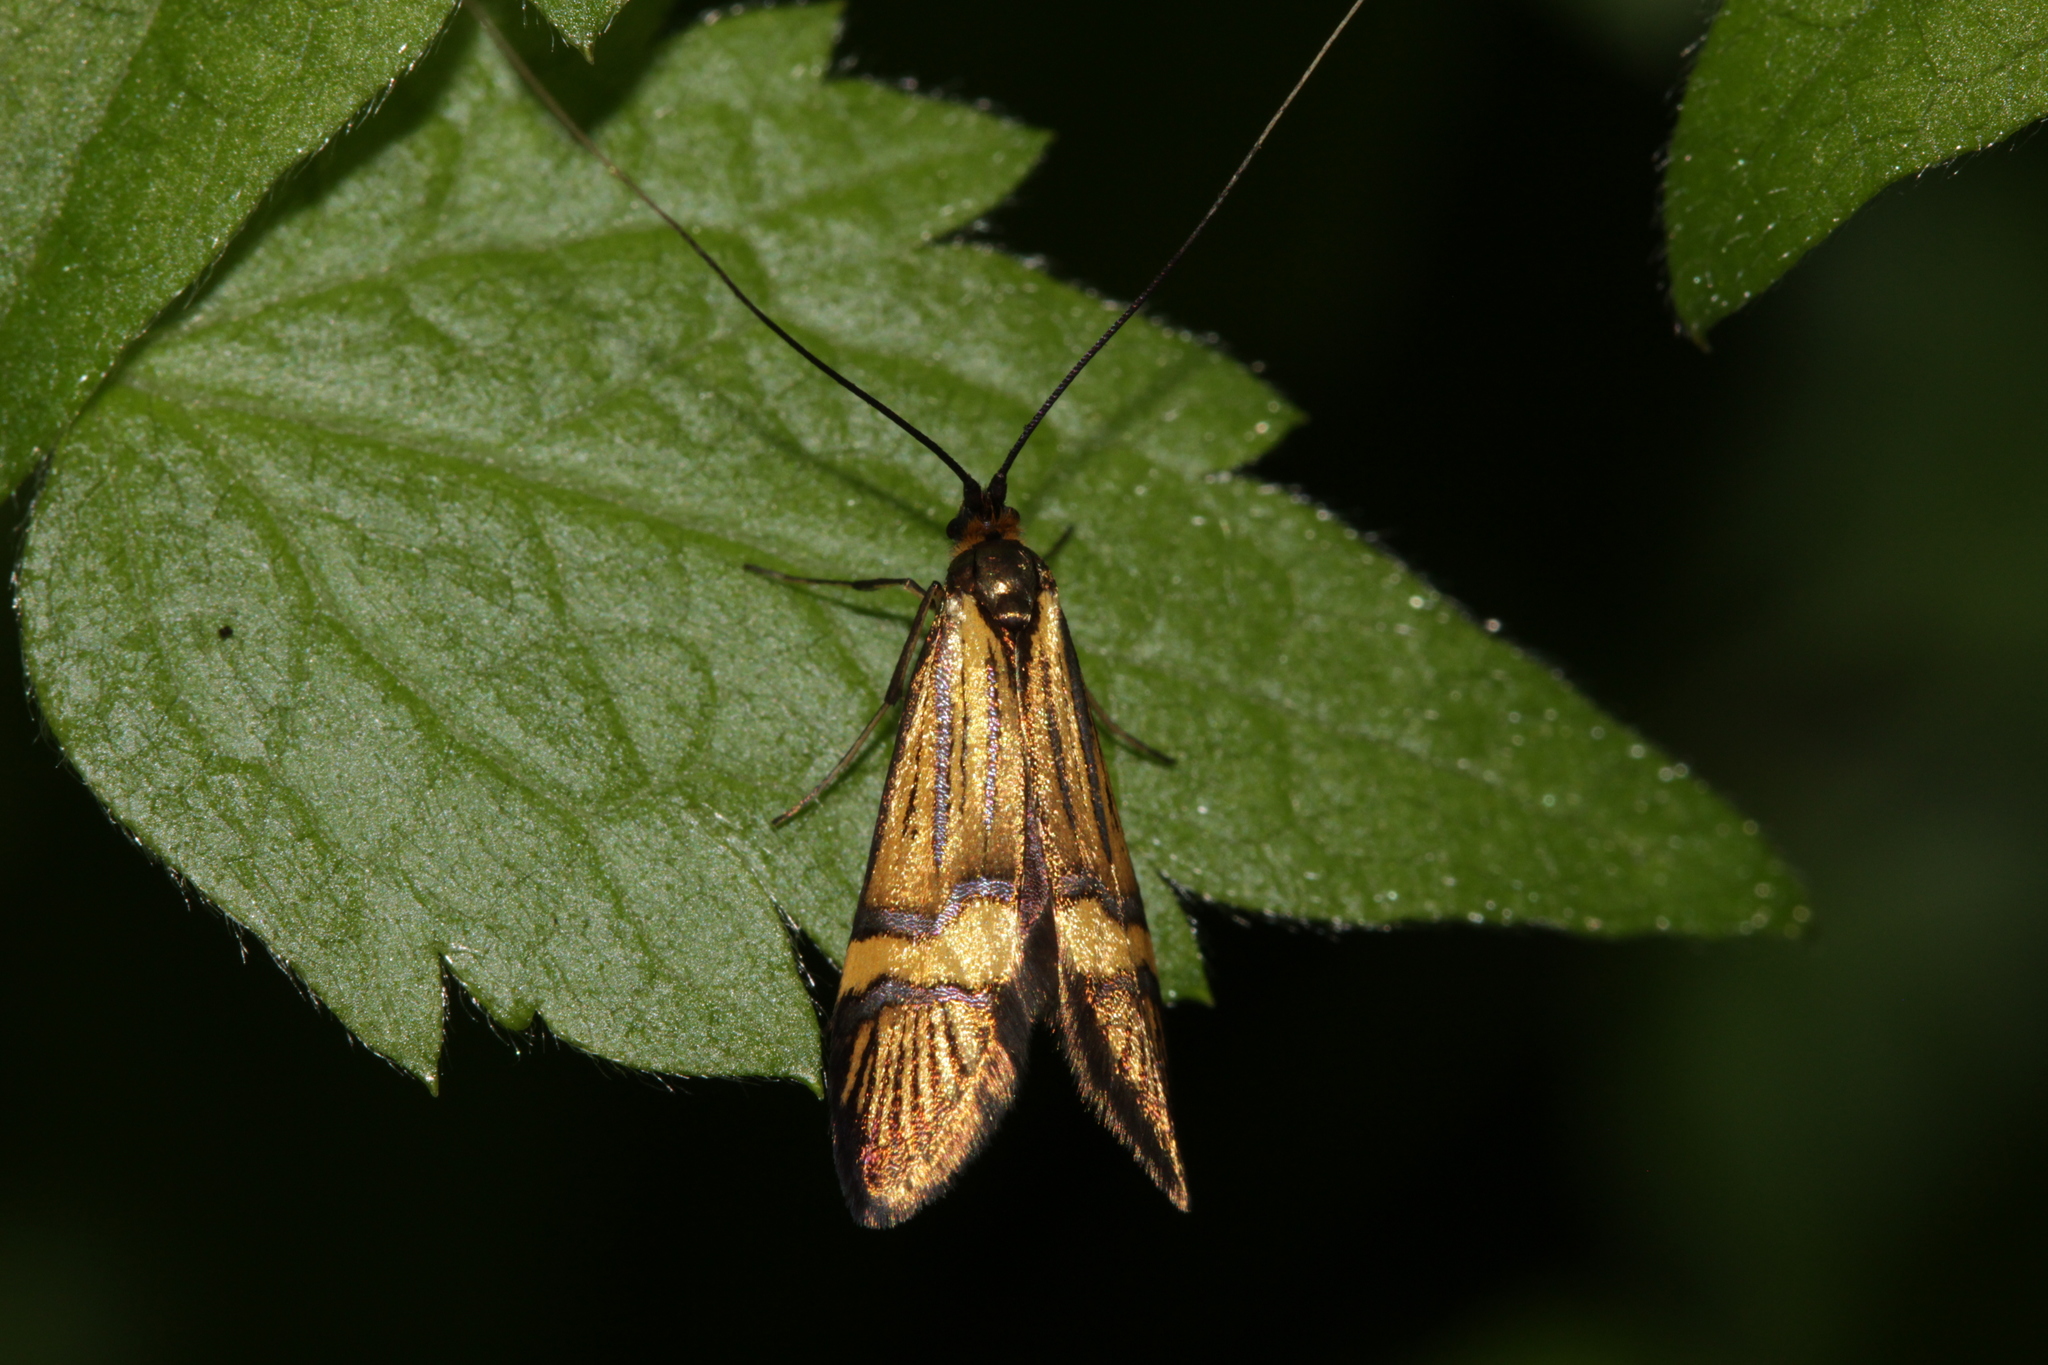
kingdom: Animalia
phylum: Arthropoda
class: Insecta
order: Lepidoptera
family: Adelidae
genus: Nemophora
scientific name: Nemophora
